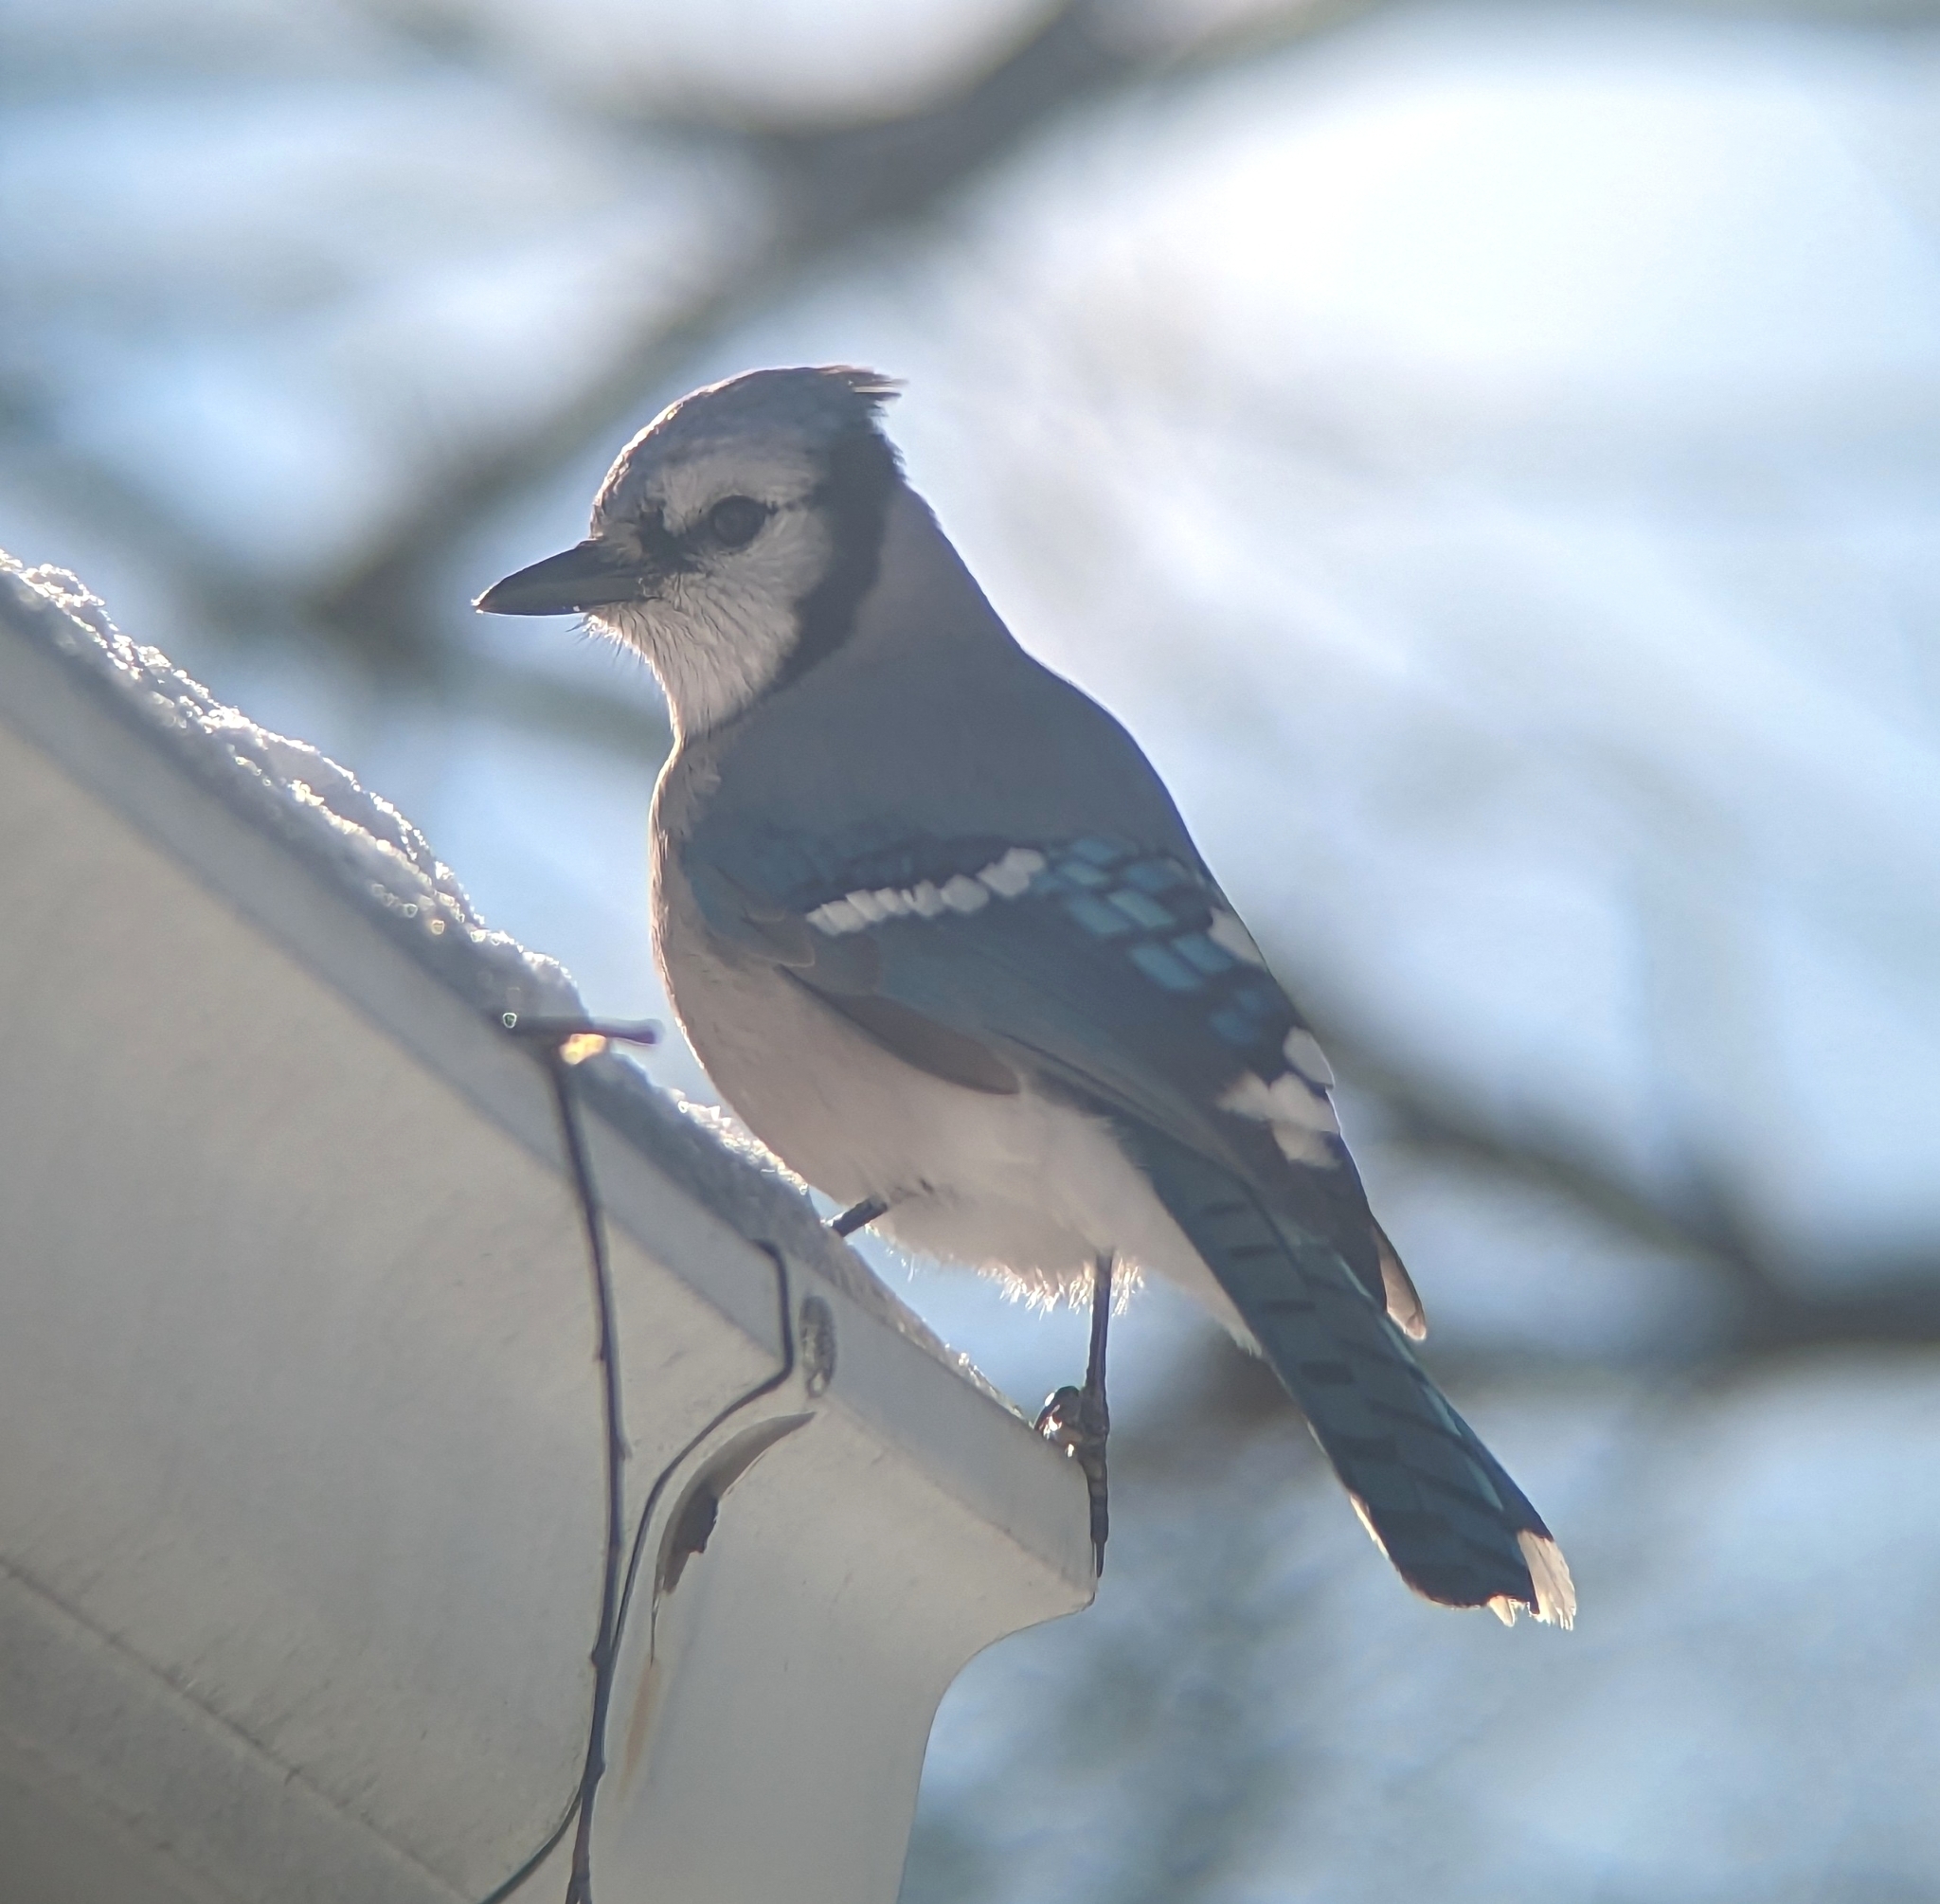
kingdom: Animalia
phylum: Chordata
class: Aves
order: Passeriformes
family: Corvidae
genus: Cyanocitta
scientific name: Cyanocitta cristata
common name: Blue jay
